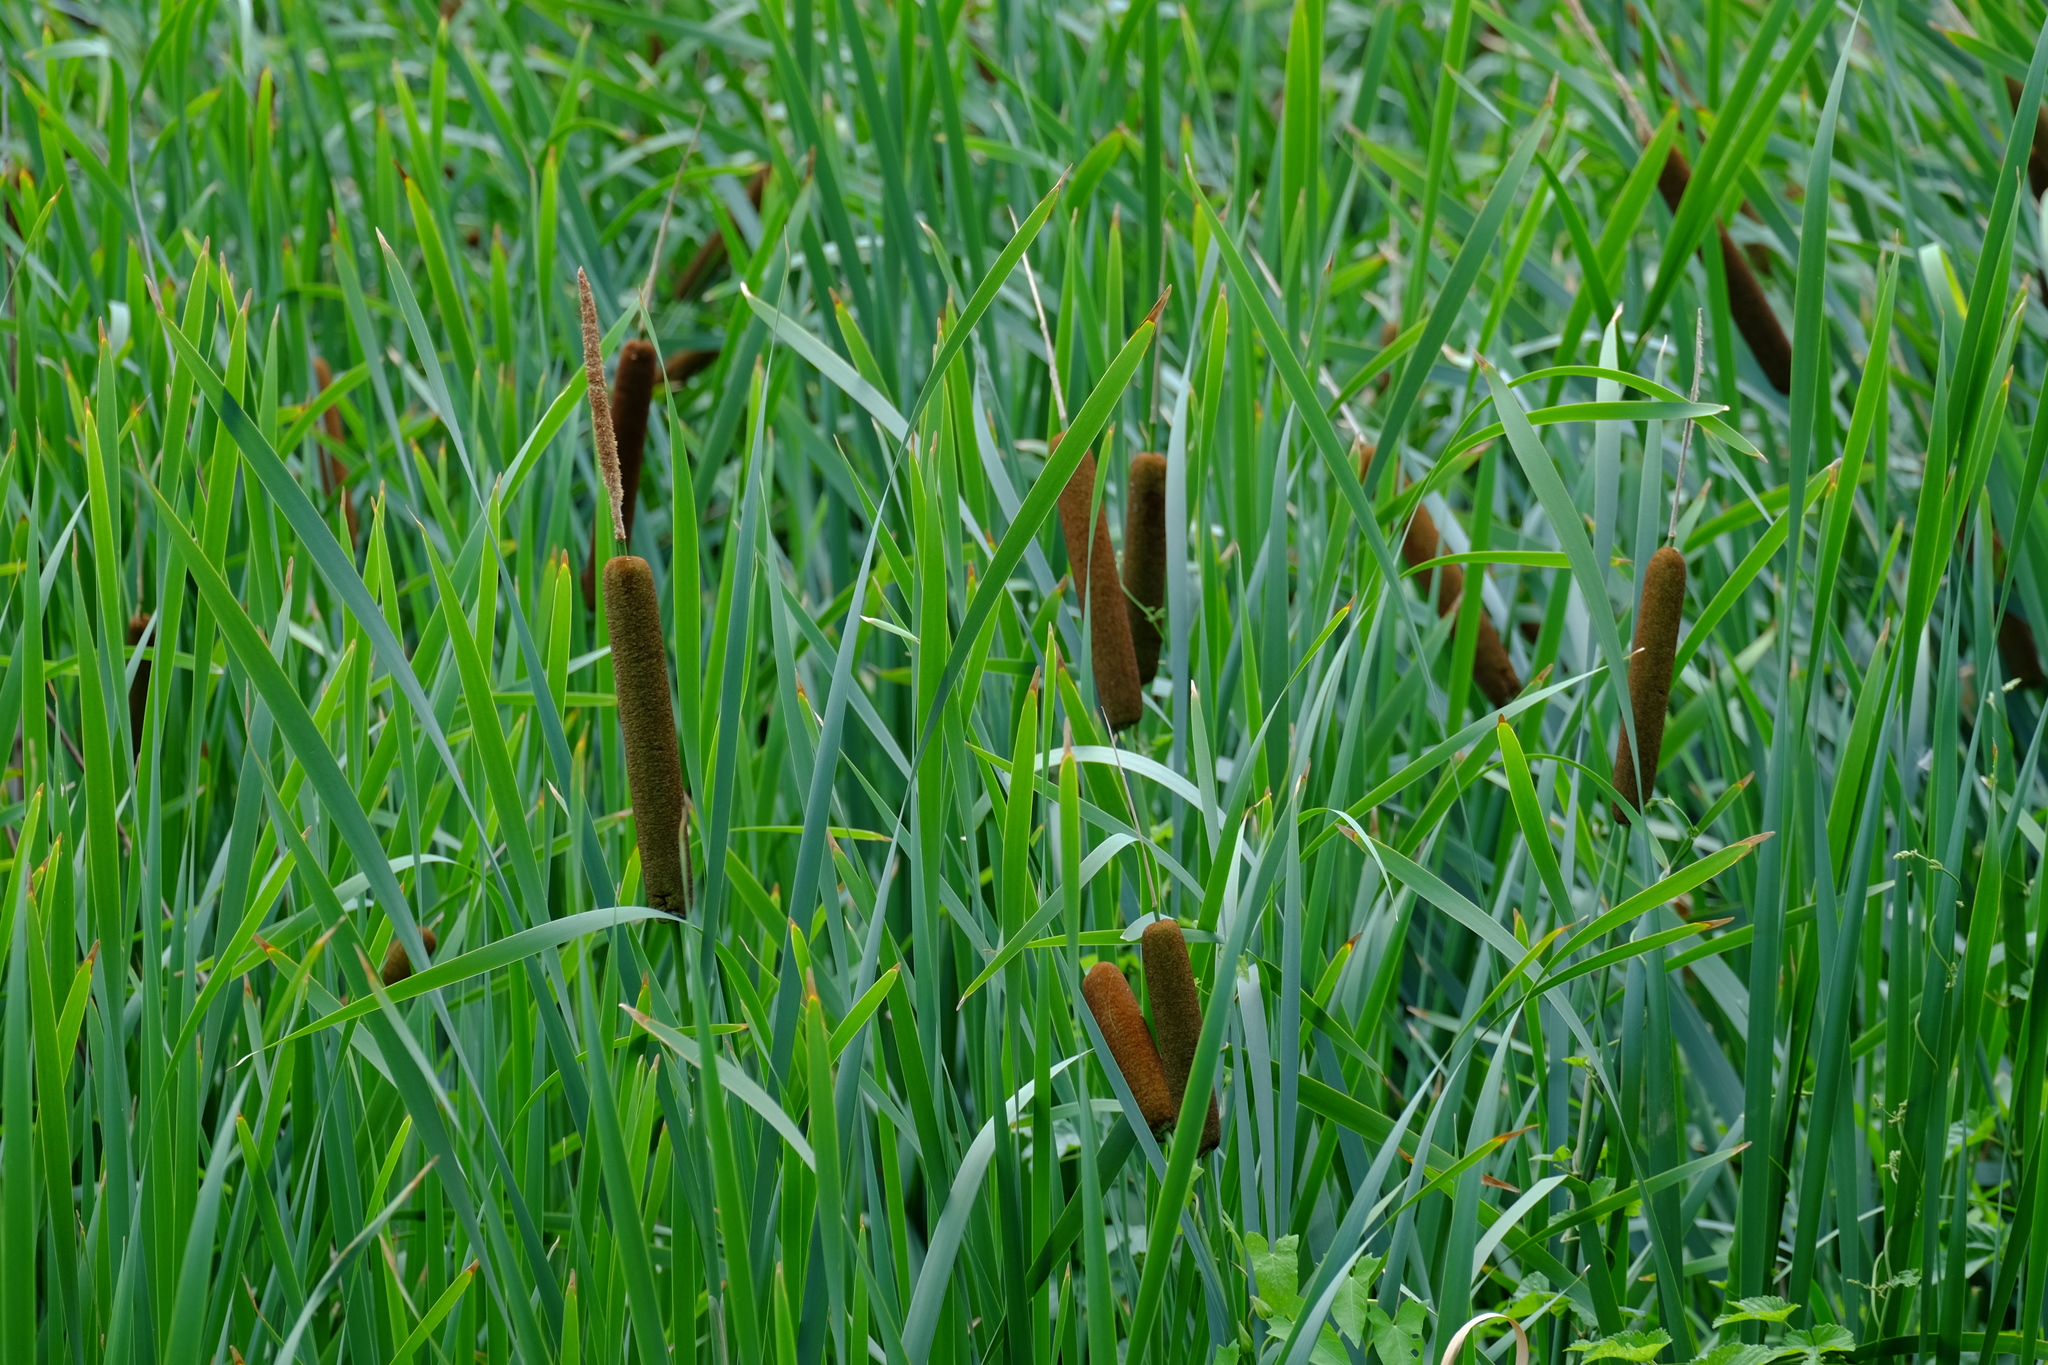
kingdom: Plantae
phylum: Tracheophyta
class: Liliopsida
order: Poales
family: Typhaceae
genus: Typha
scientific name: Typha glauca
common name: Blue cattail
